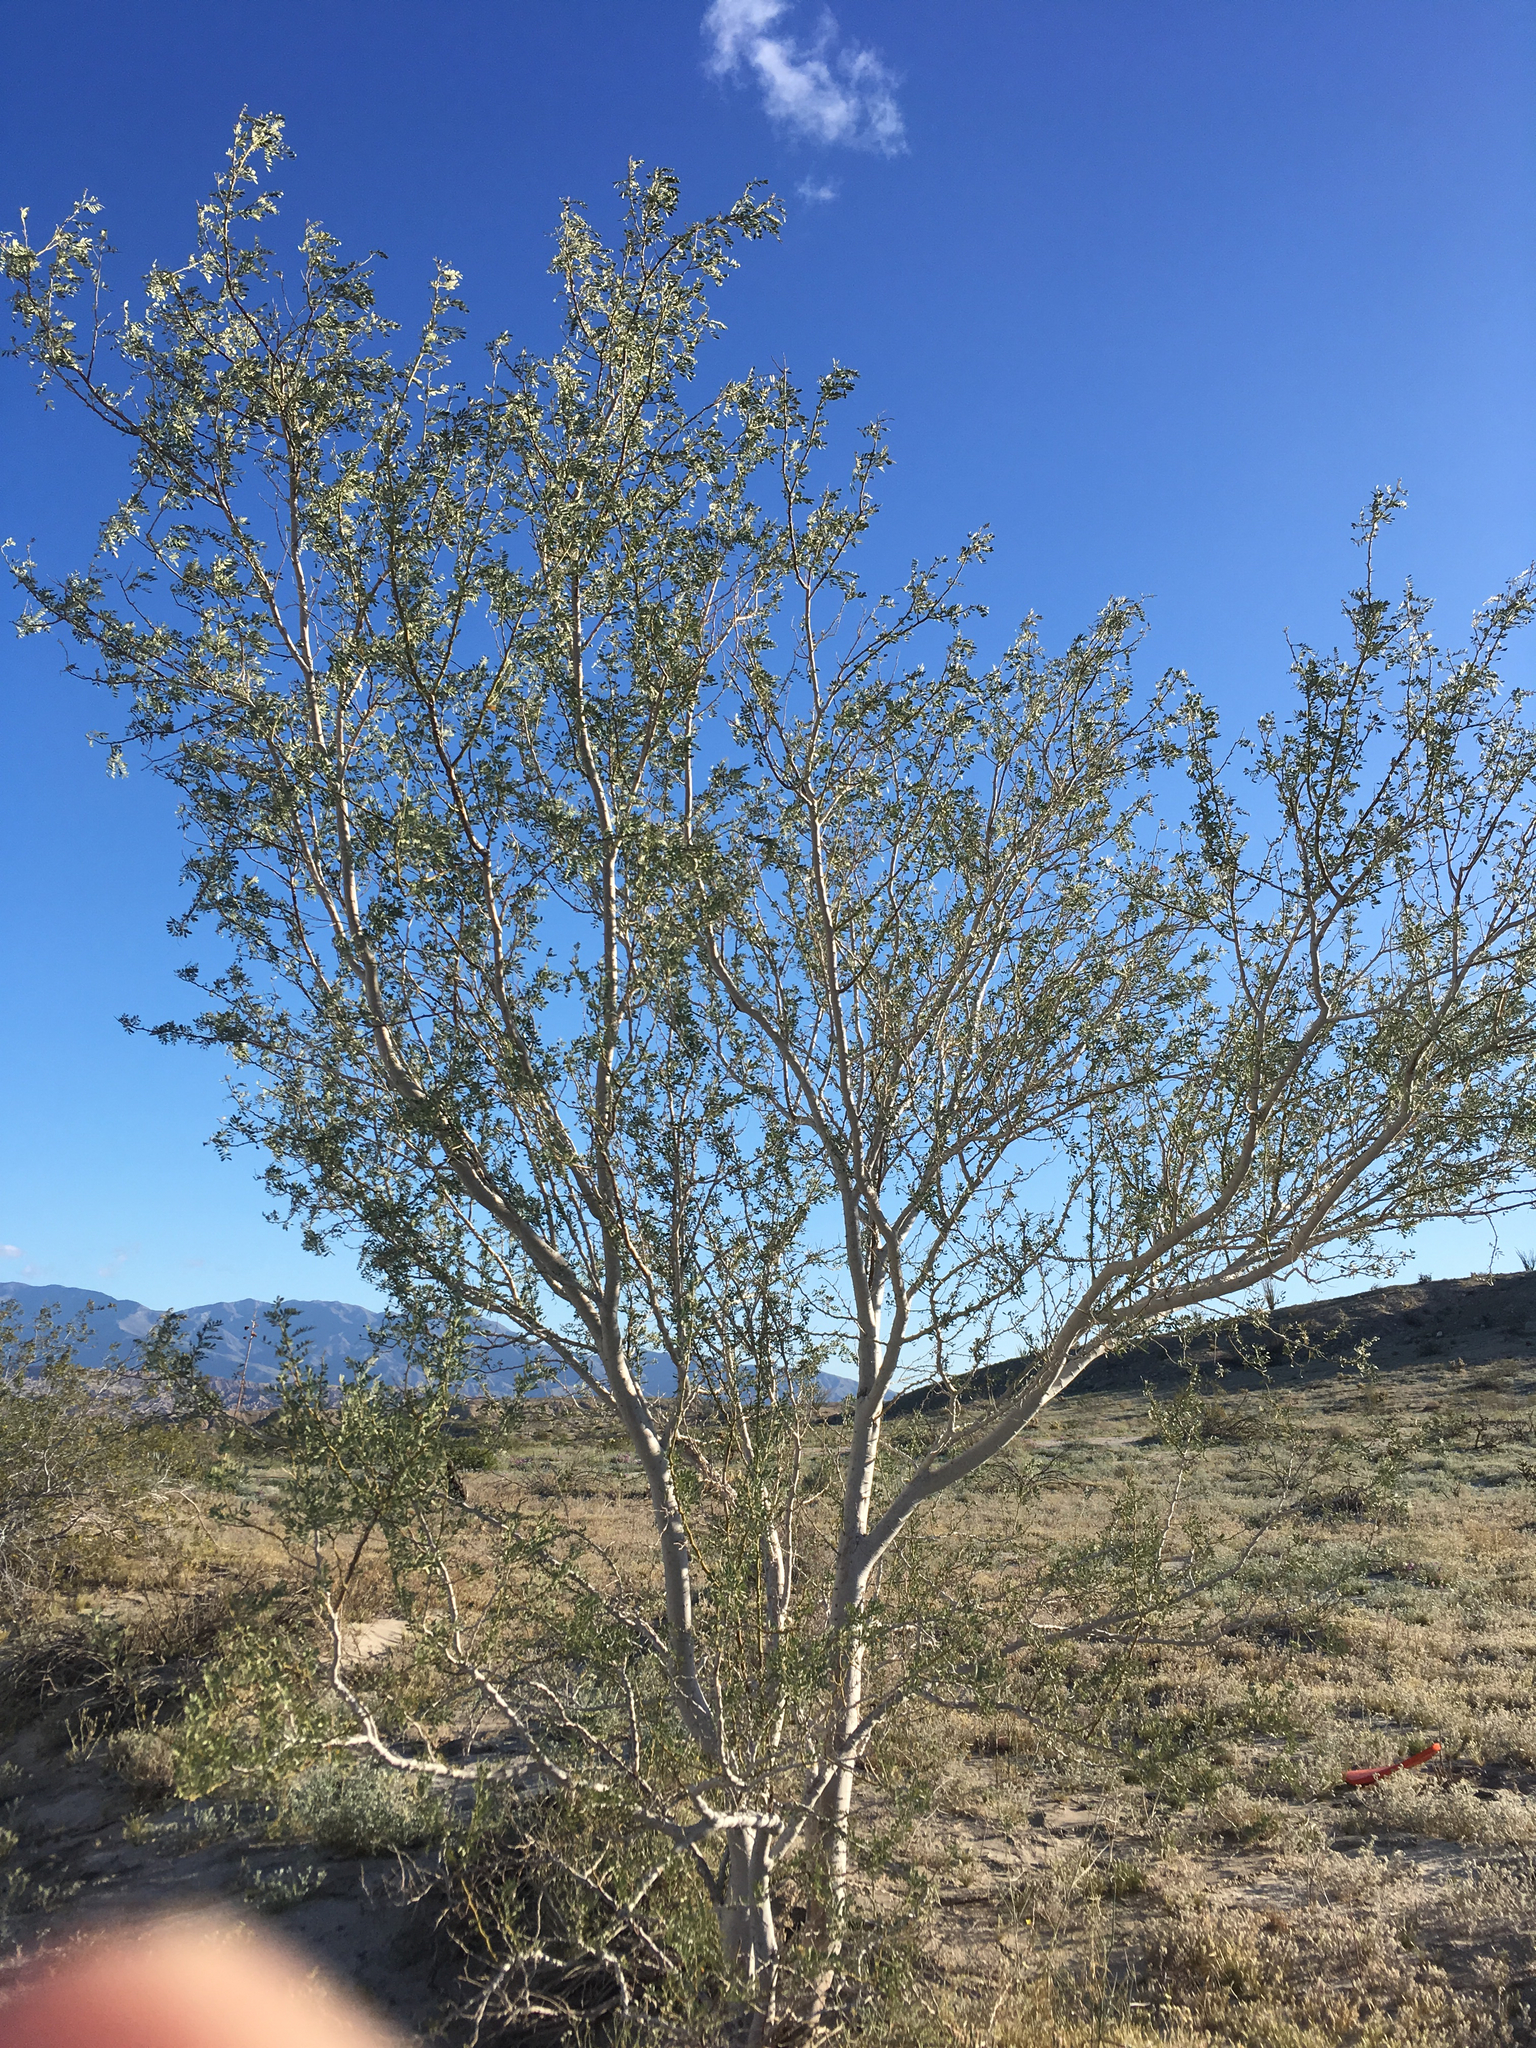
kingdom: Plantae
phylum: Tracheophyta
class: Magnoliopsida
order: Fabales
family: Fabaceae
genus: Olneya
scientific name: Olneya tesota
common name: Desert ironwood
